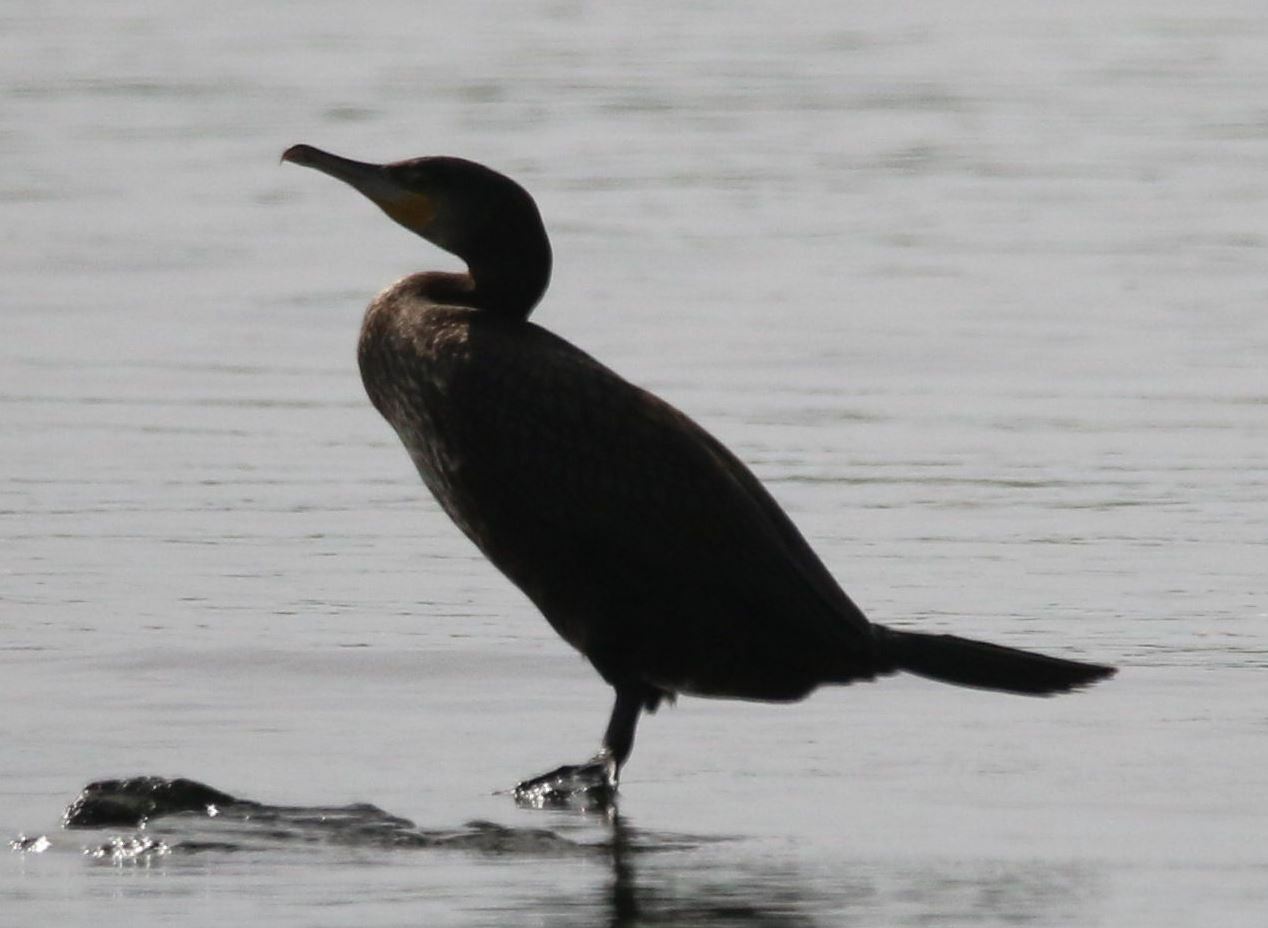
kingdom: Animalia
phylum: Chordata
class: Aves
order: Suliformes
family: Phalacrocoracidae
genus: Phalacrocorax
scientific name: Phalacrocorax carbo
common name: Great cormorant
